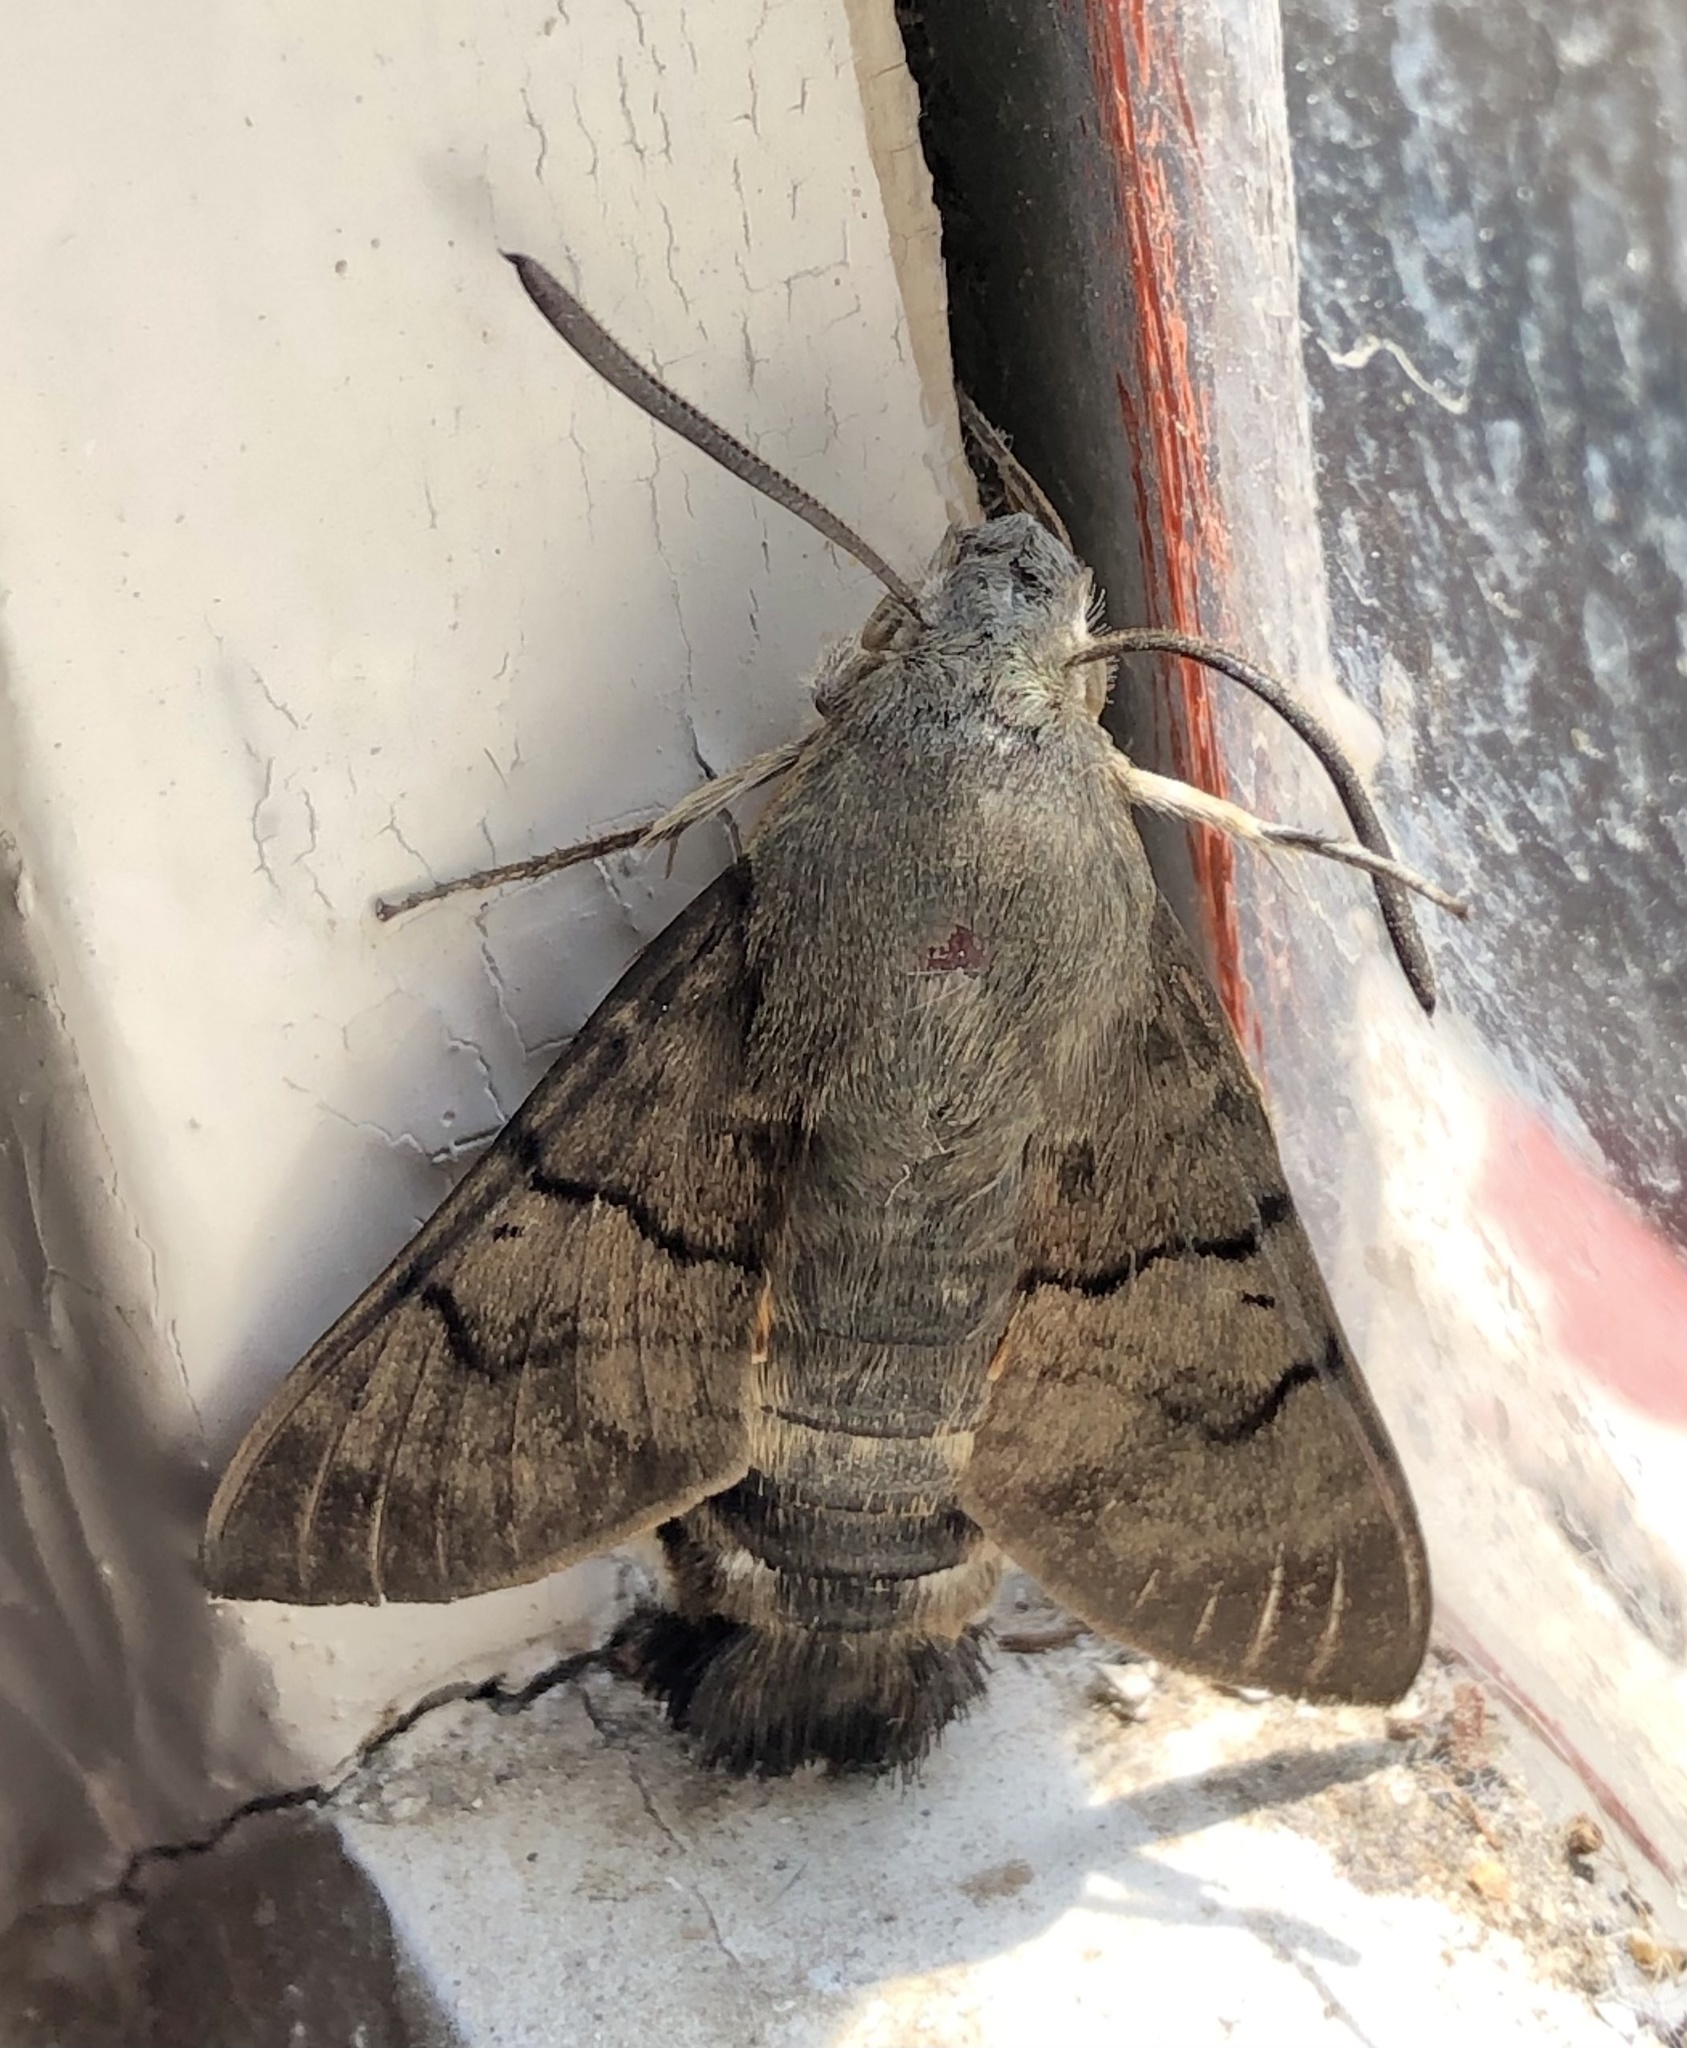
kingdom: Animalia
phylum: Arthropoda
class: Insecta
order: Lepidoptera
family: Sphingidae
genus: Macroglossum
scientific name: Macroglossum stellatarum
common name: Humming-bird hawk-moth
